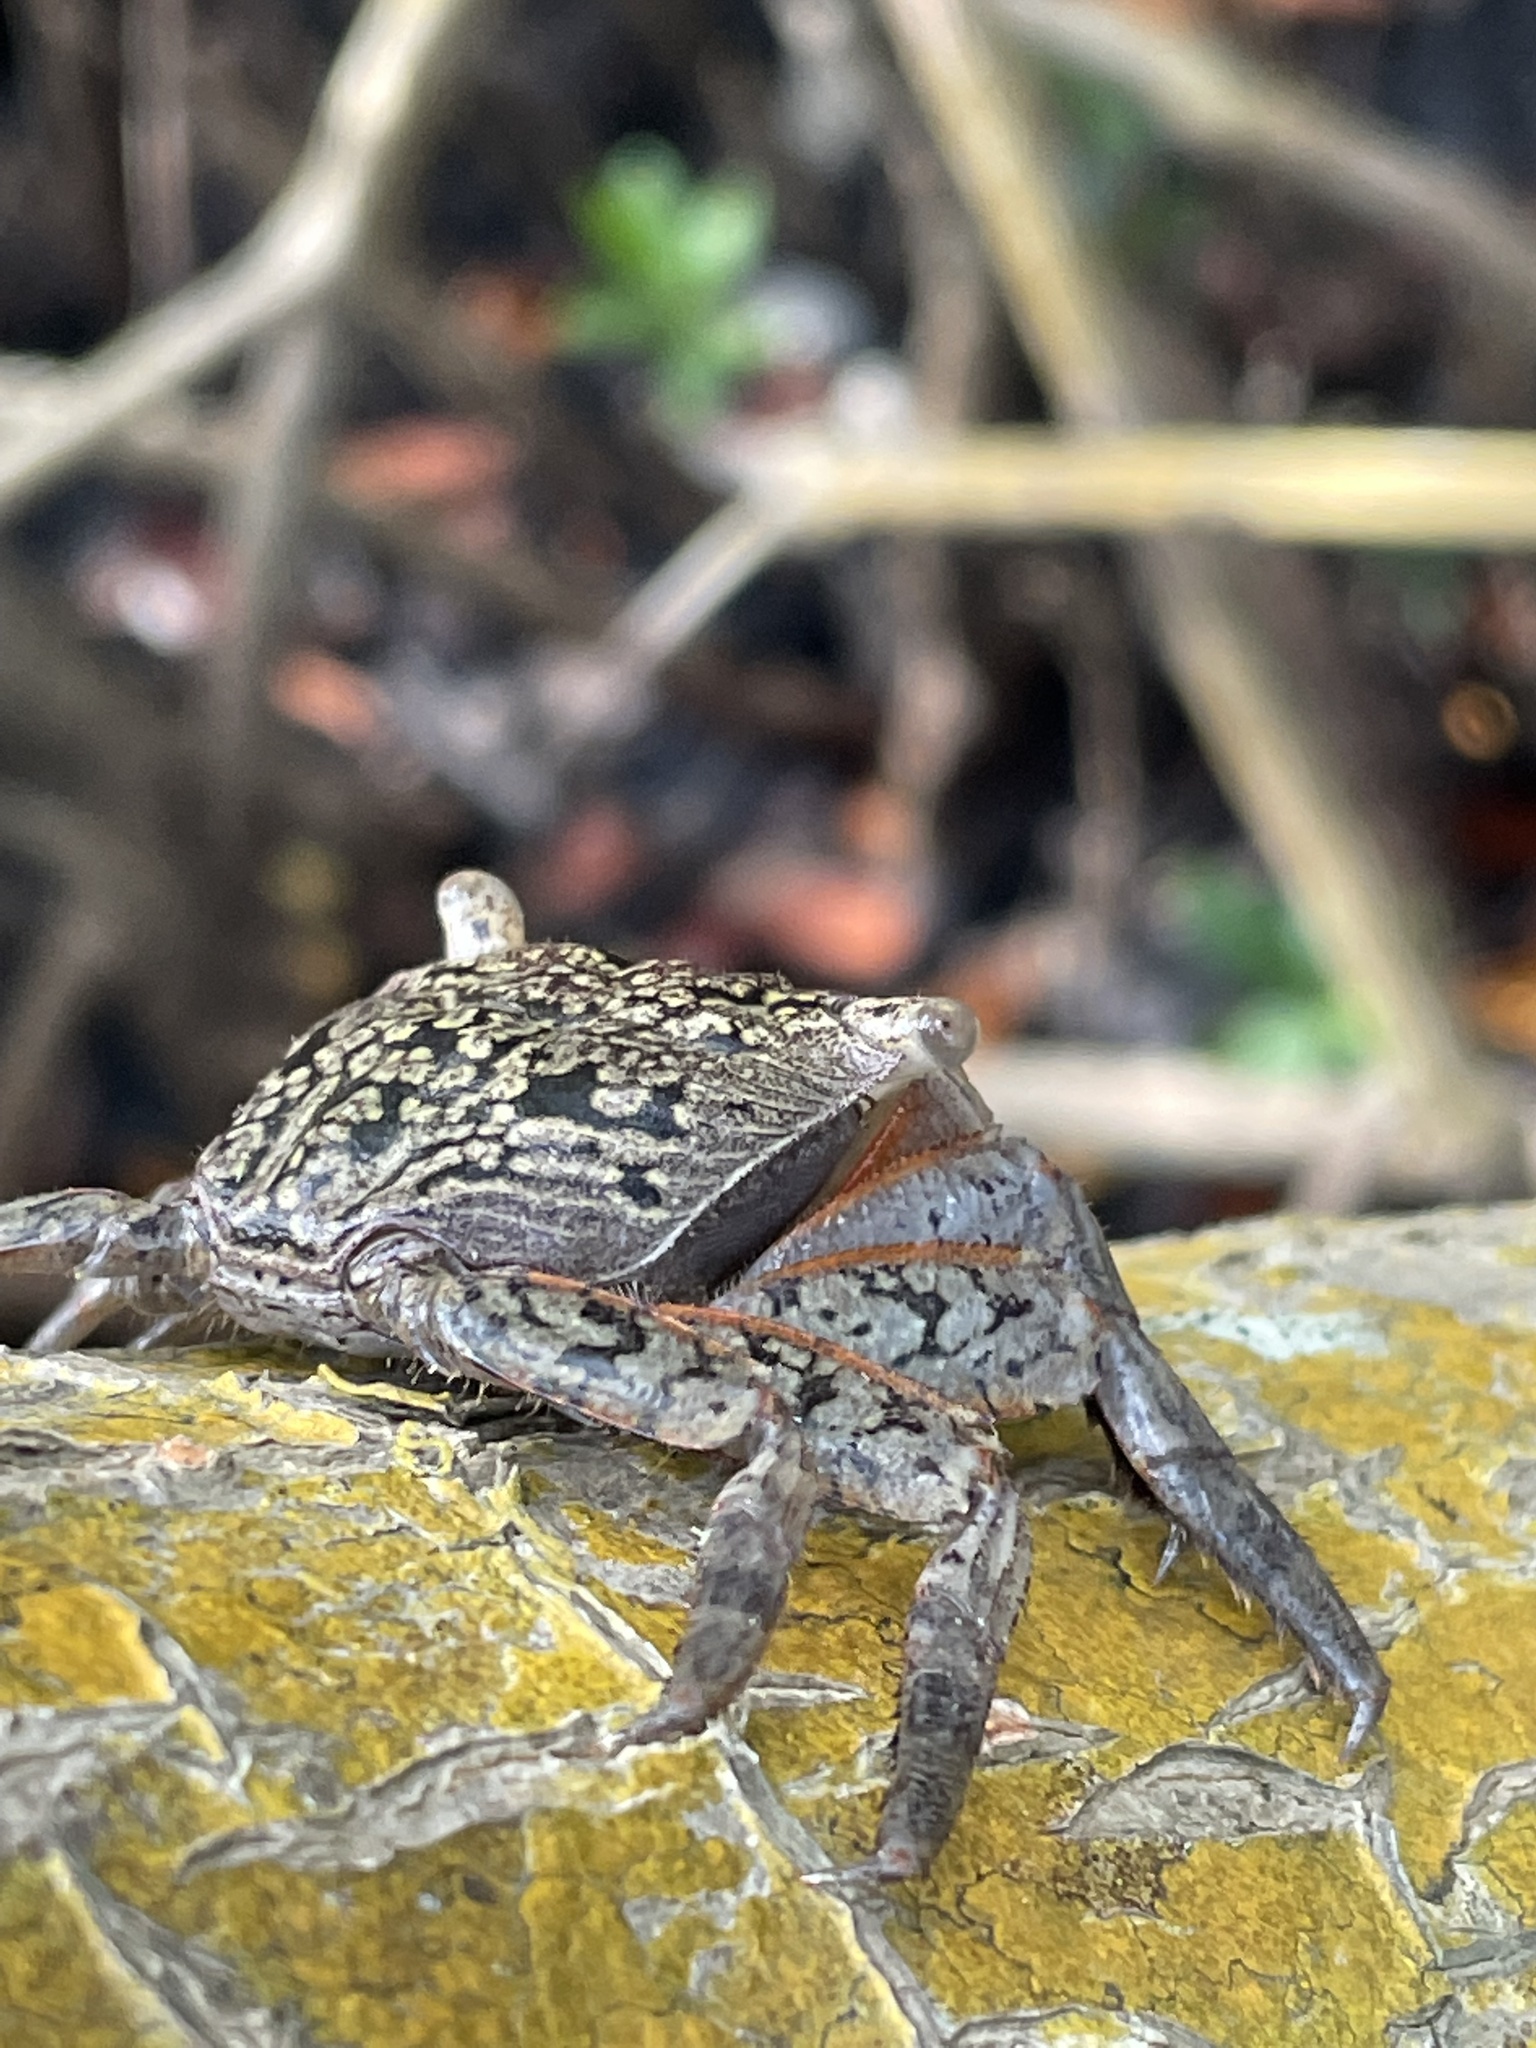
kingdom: Animalia
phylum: Arthropoda
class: Malacostraca
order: Decapoda
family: Sesarmidae
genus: Aratus
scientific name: Aratus pisonii
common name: Mangrove crab
